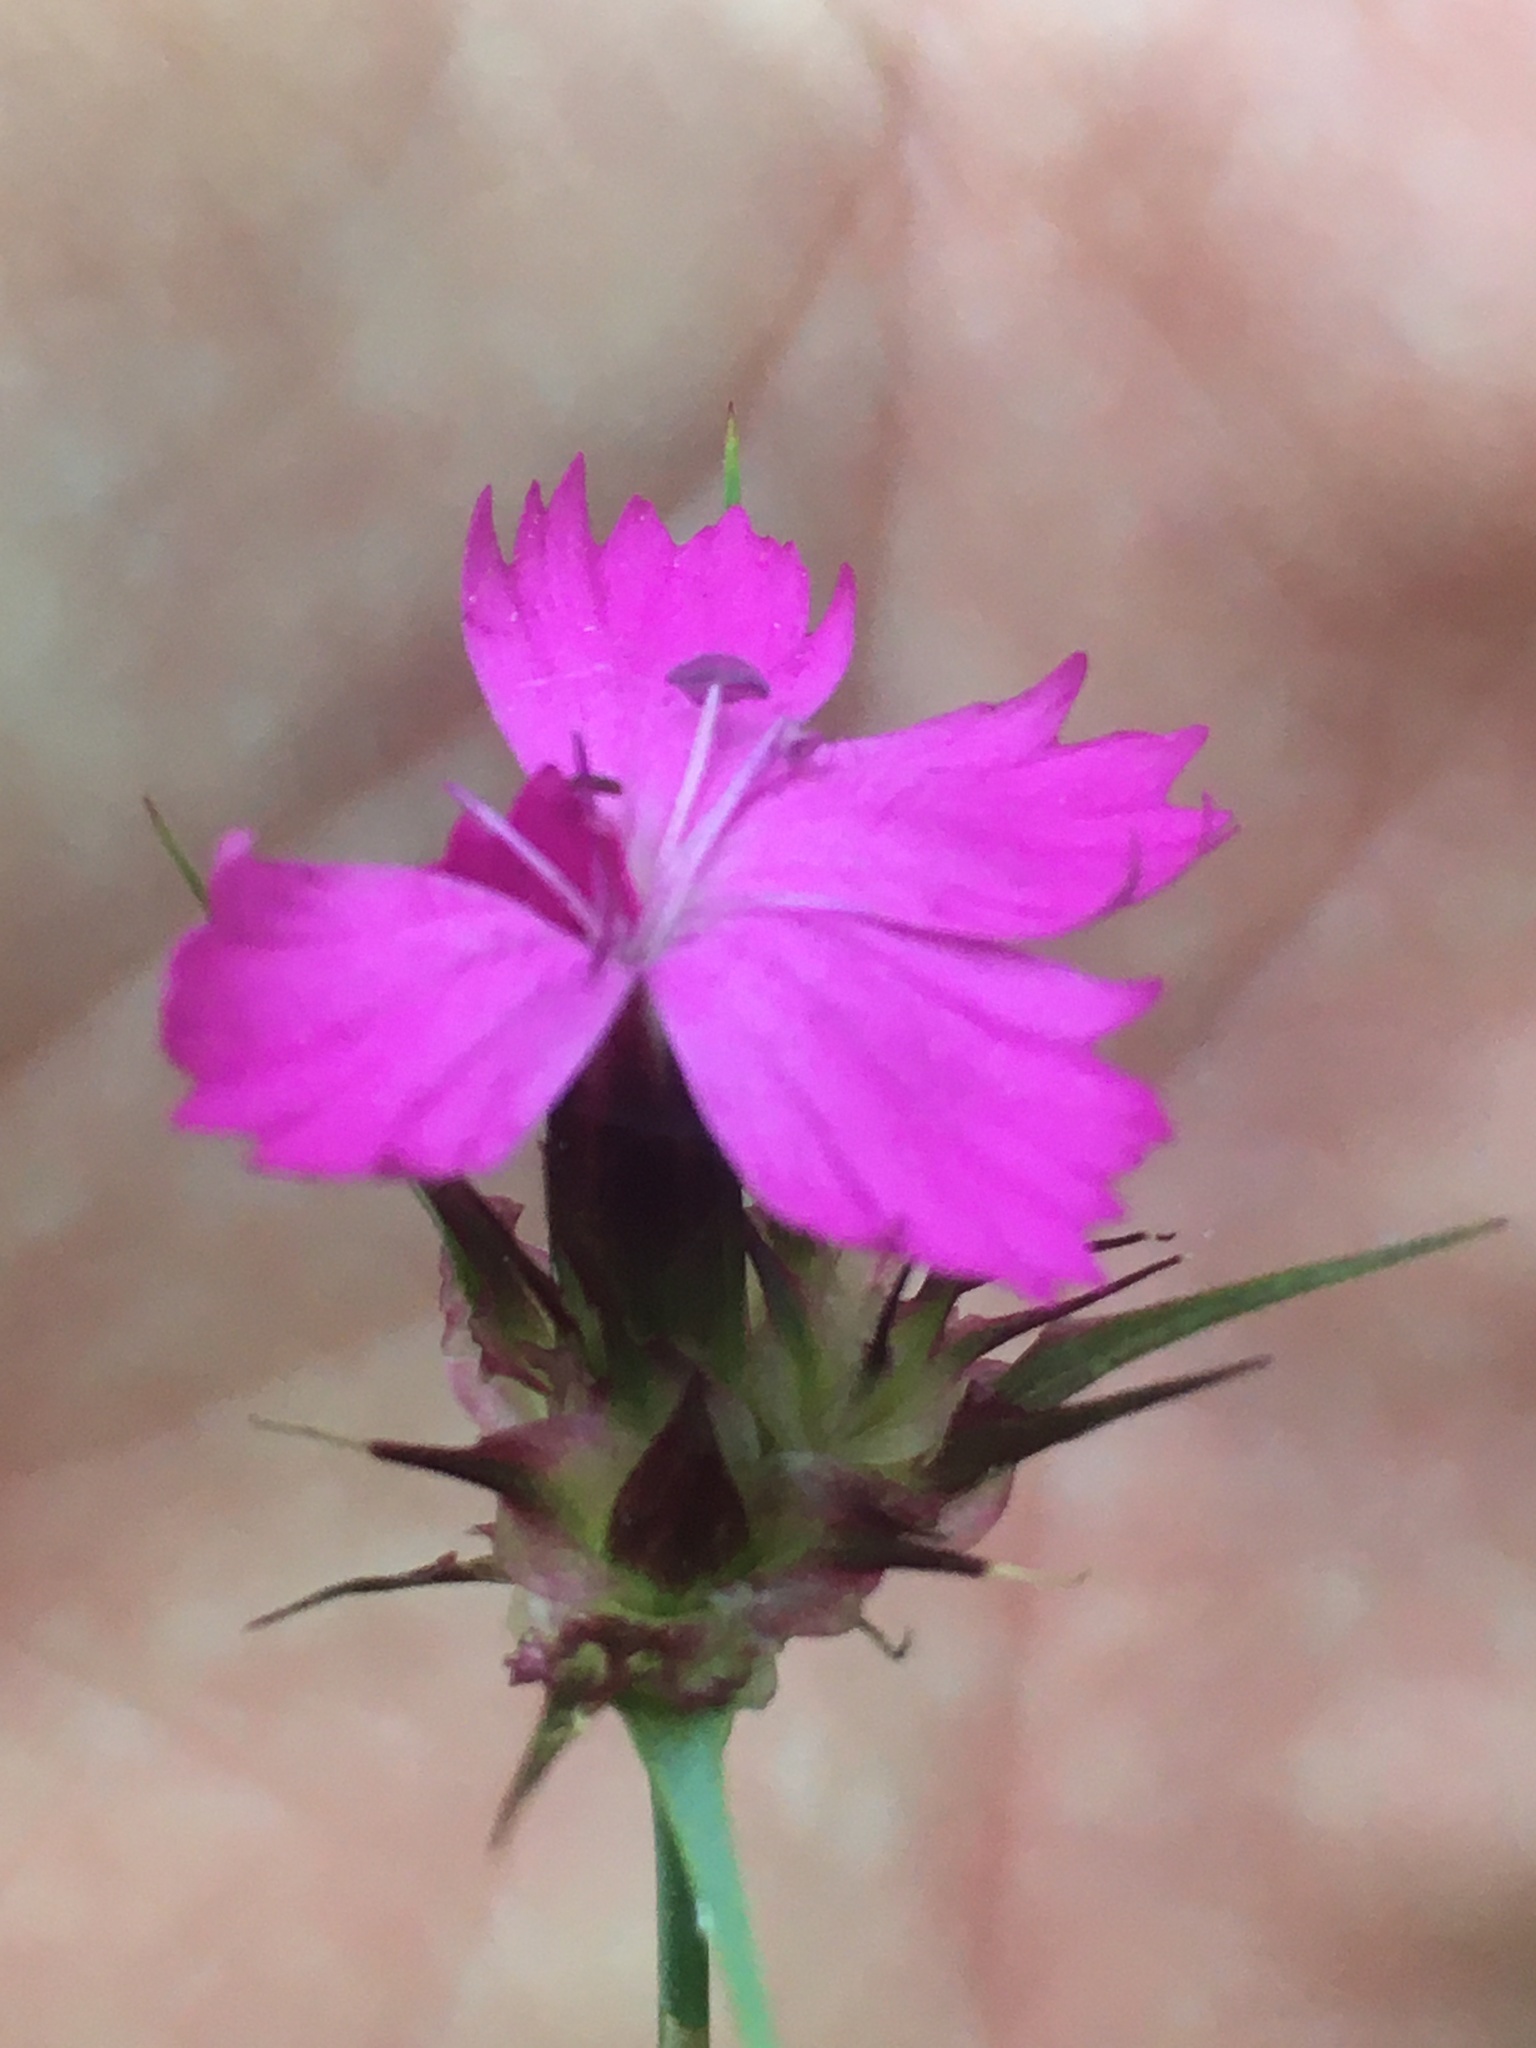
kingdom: Plantae
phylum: Tracheophyta
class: Magnoliopsida
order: Caryophyllales
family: Caryophyllaceae
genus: Dianthus
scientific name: Dianthus capitatus
